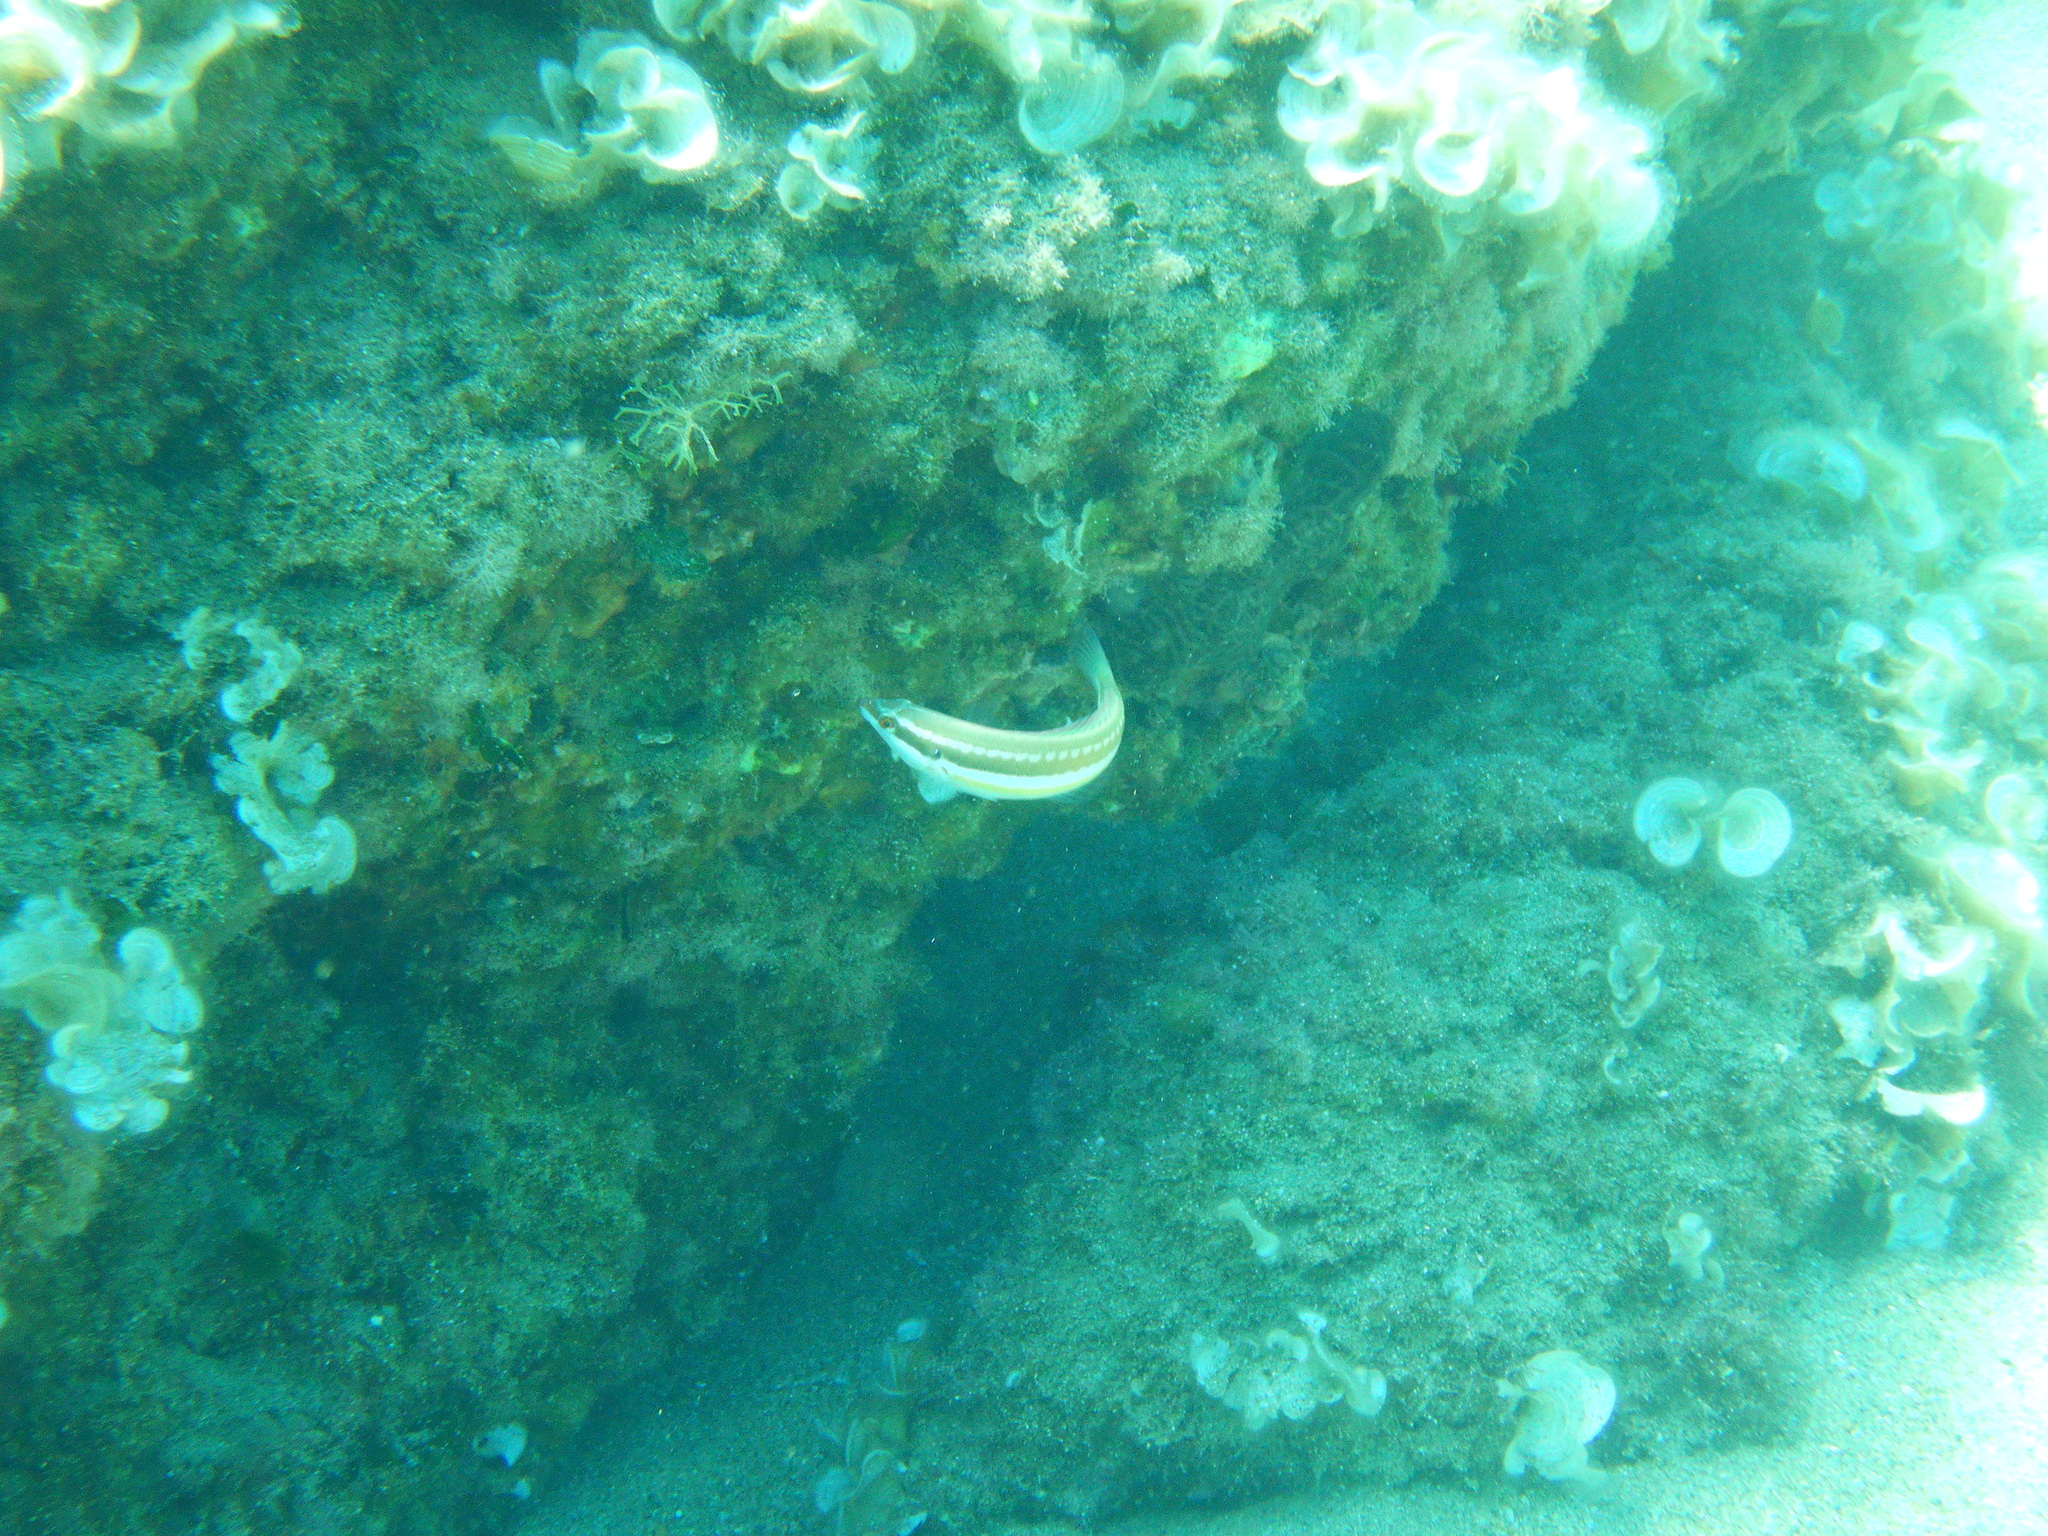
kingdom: Animalia
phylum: Chordata
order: Perciformes
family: Labridae
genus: Coris
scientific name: Coris julis
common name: Rainbow wrasse
